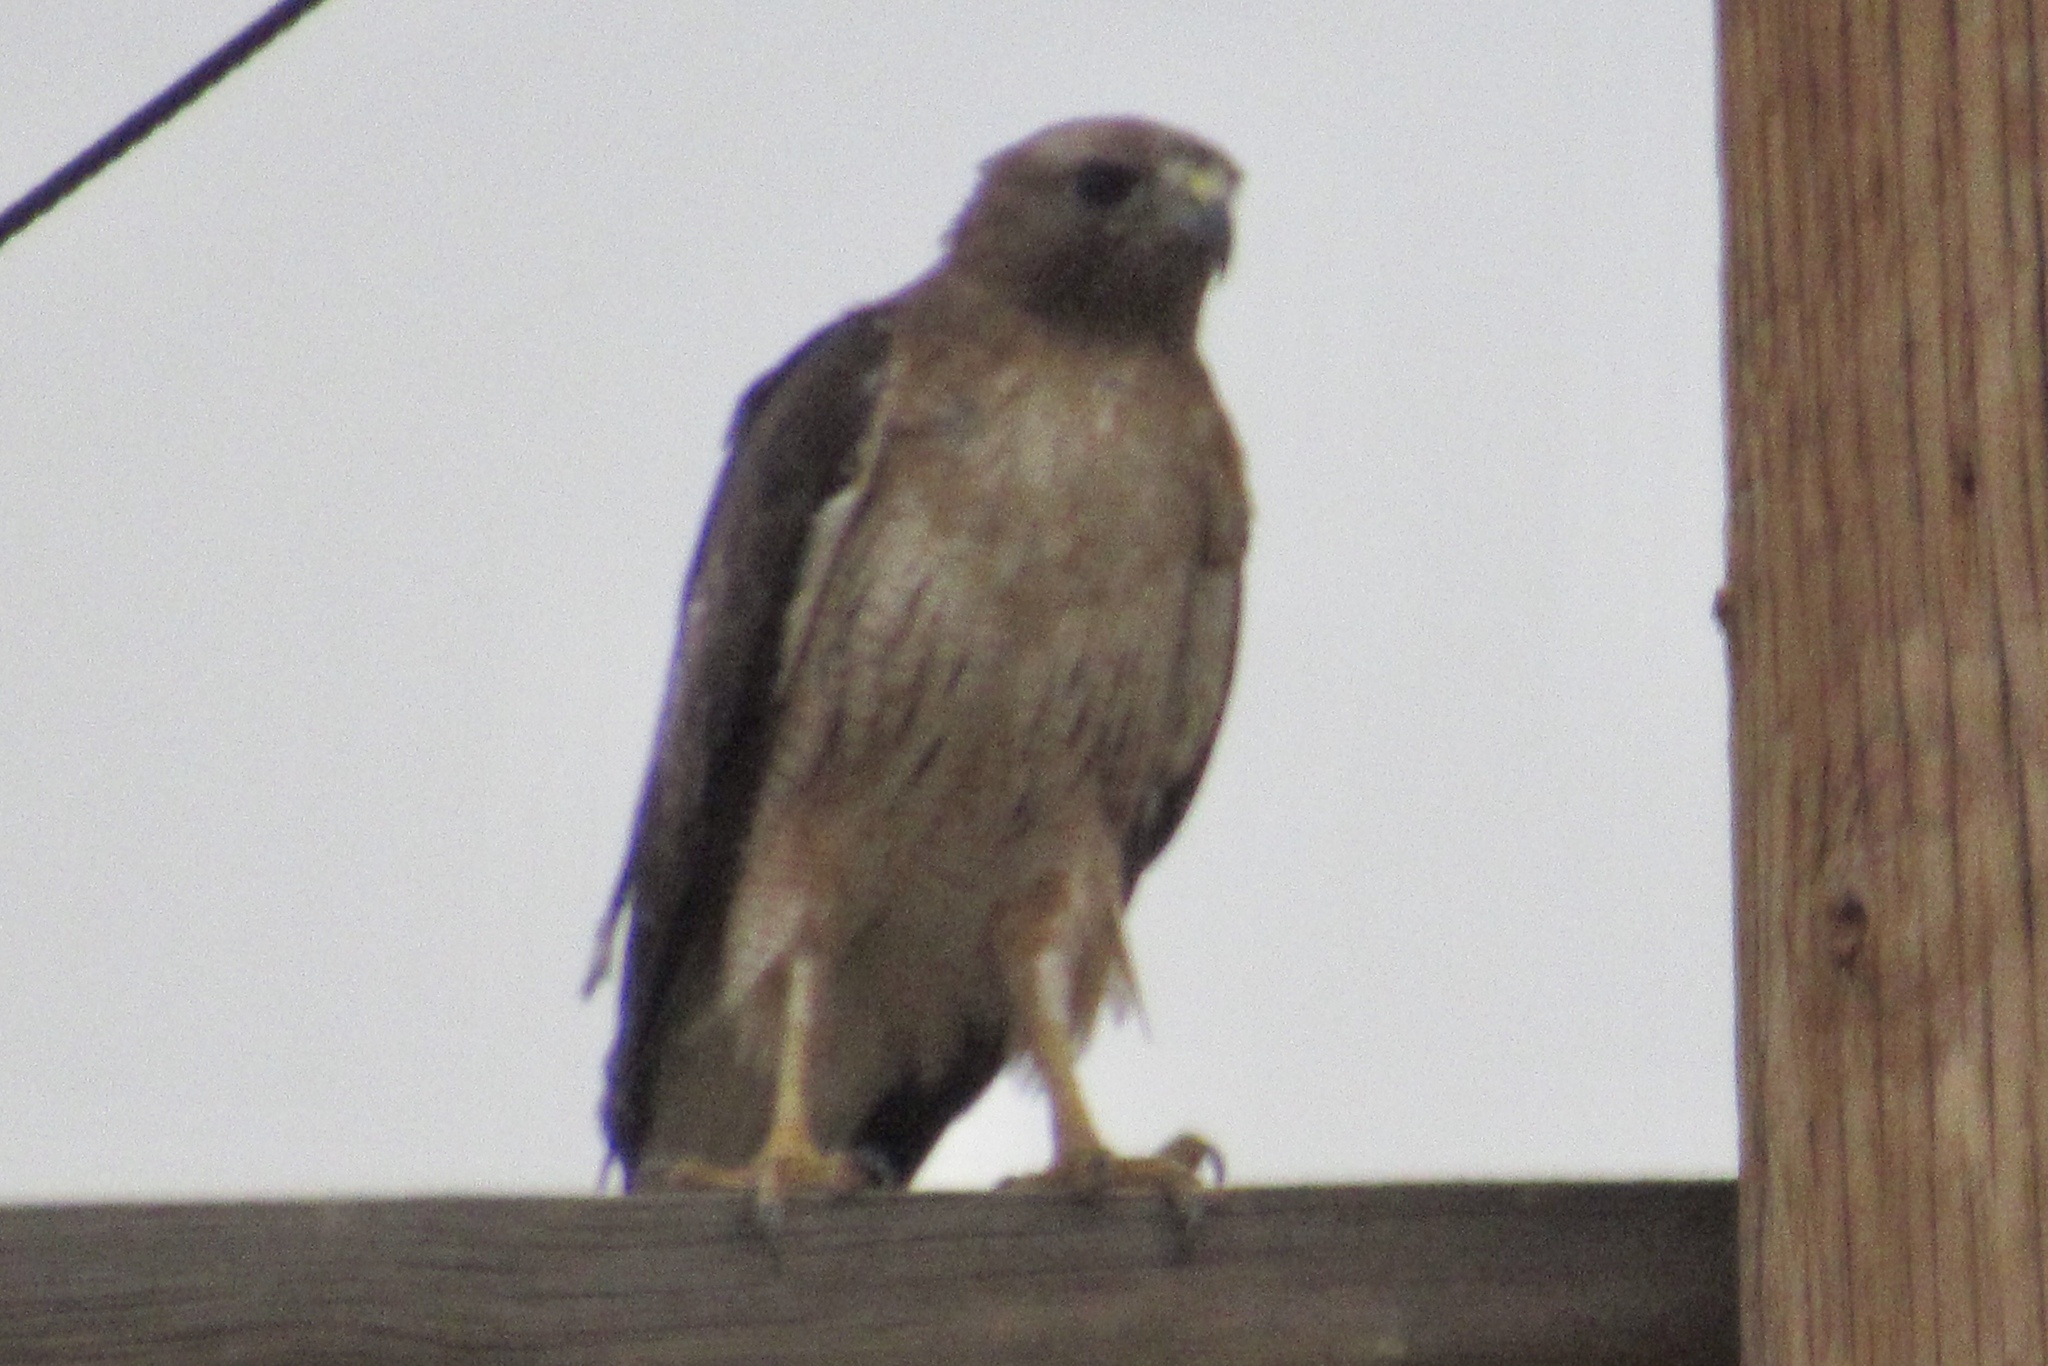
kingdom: Animalia
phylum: Chordata
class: Aves
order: Accipitriformes
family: Accipitridae
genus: Buteo
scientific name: Buteo jamaicensis
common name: Red-tailed hawk
